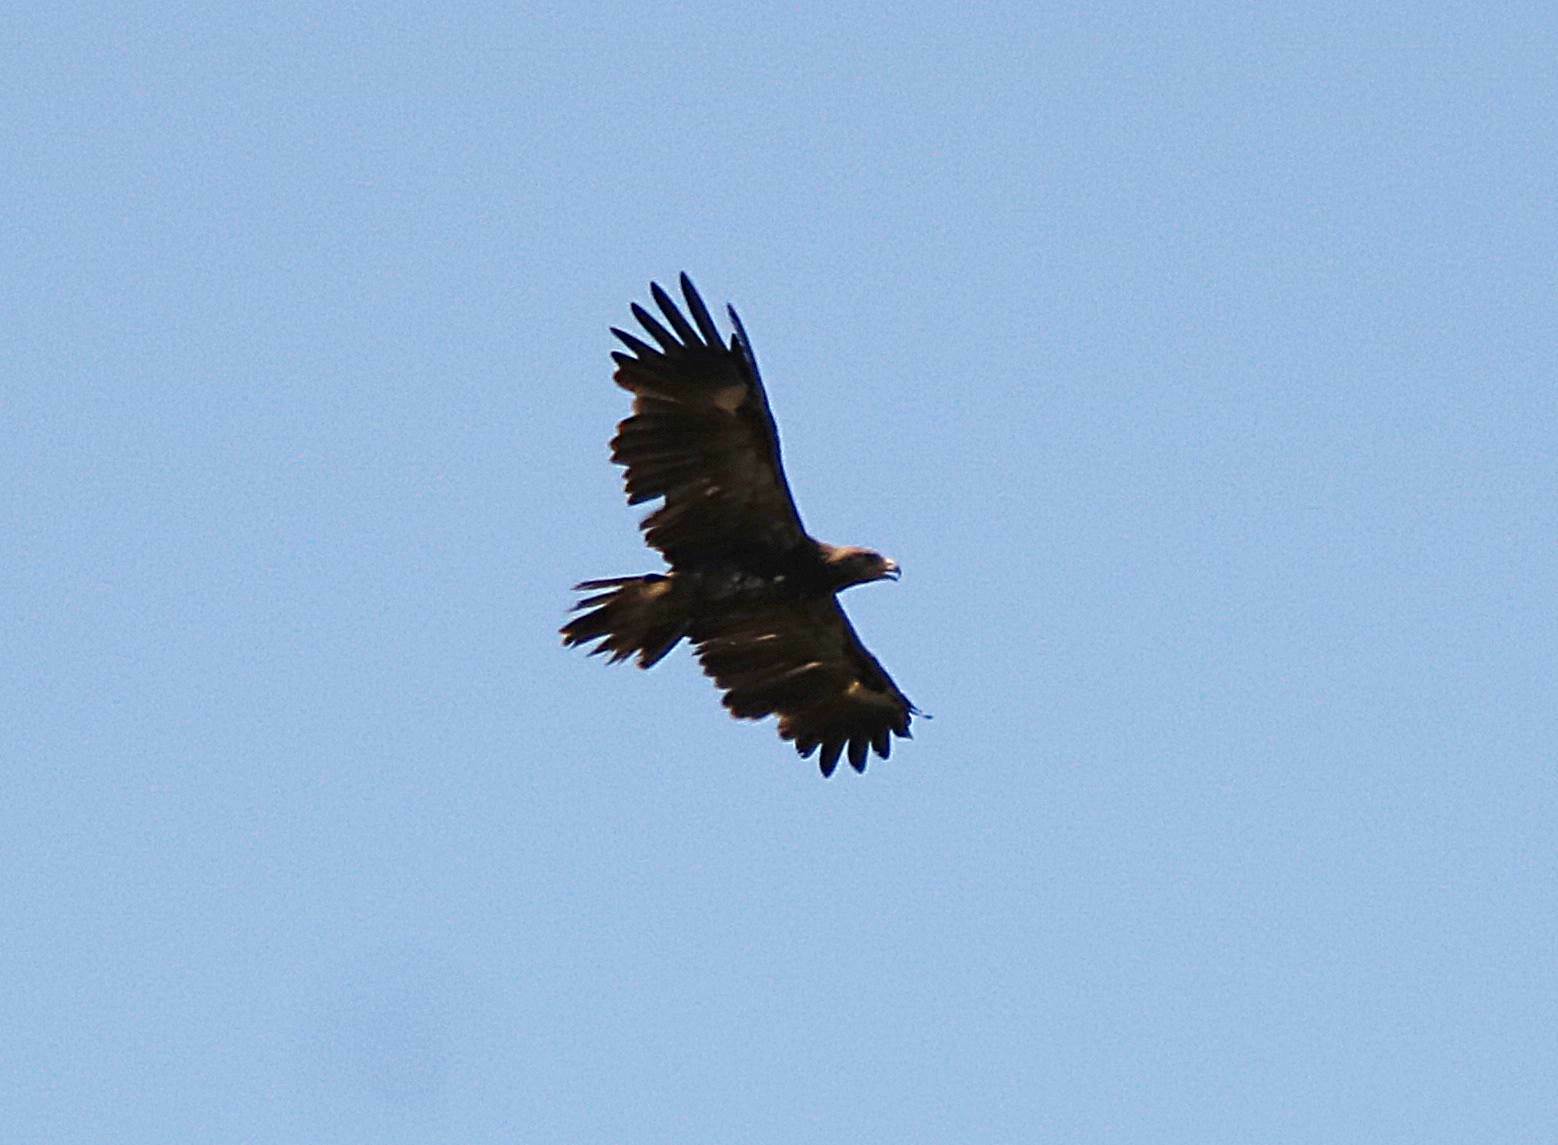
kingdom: Animalia
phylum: Chordata
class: Aves
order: Accipitriformes
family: Accipitridae
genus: Aquila
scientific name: Aquila pomarina
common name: Lesser spotted eagle
